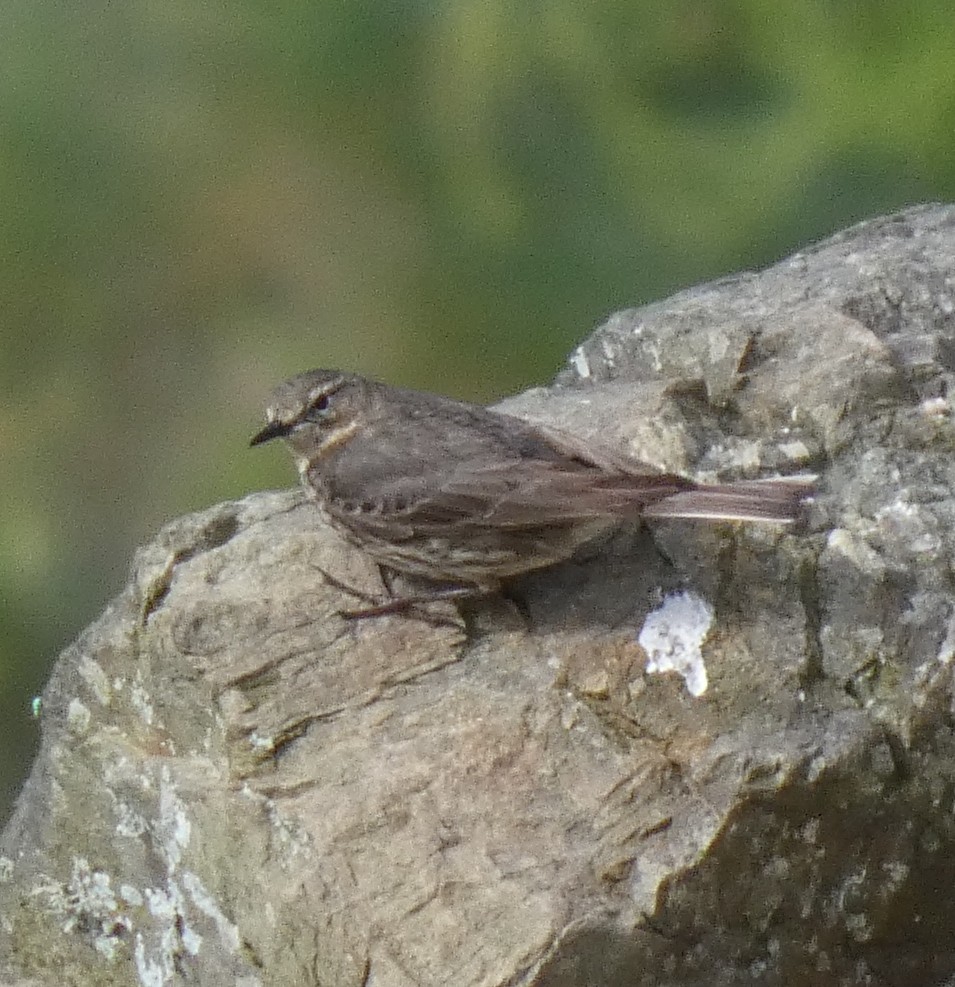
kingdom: Animalia
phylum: Chordata
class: Aves
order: Passeriformes
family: Motacillidae
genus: Anthus
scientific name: Anthus petrosus
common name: Eurasian rock pipit
